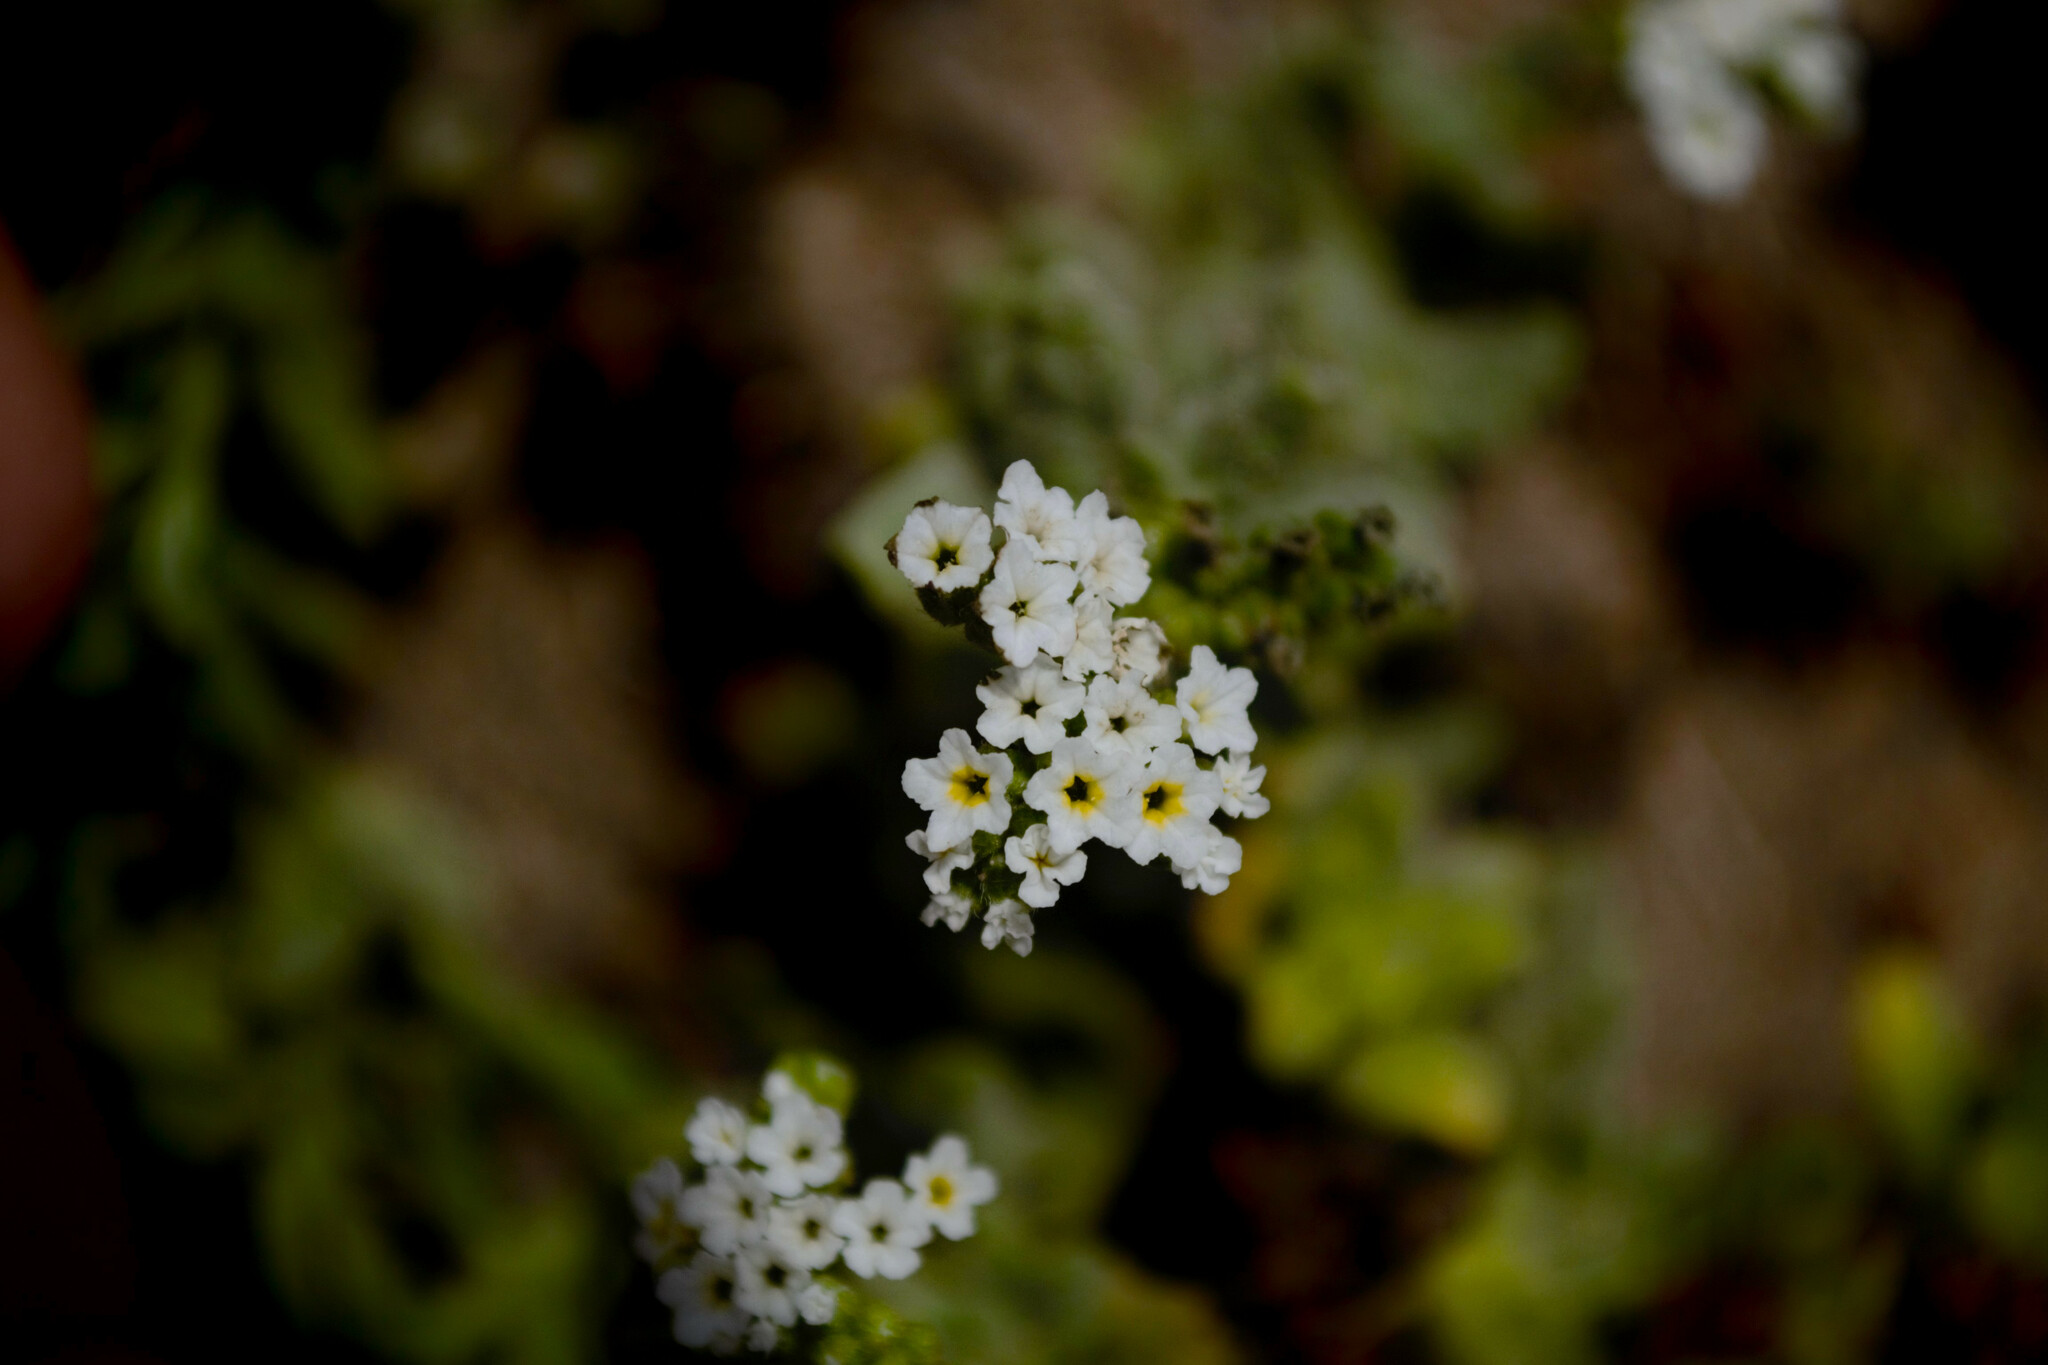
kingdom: Plantae
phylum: Tracheophyta
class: Magnoliopsida
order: Boraginales
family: Heliotropiaceae
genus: Heliotropium
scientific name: Heliotropium ramosissimum
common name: Wavy heliotrope
